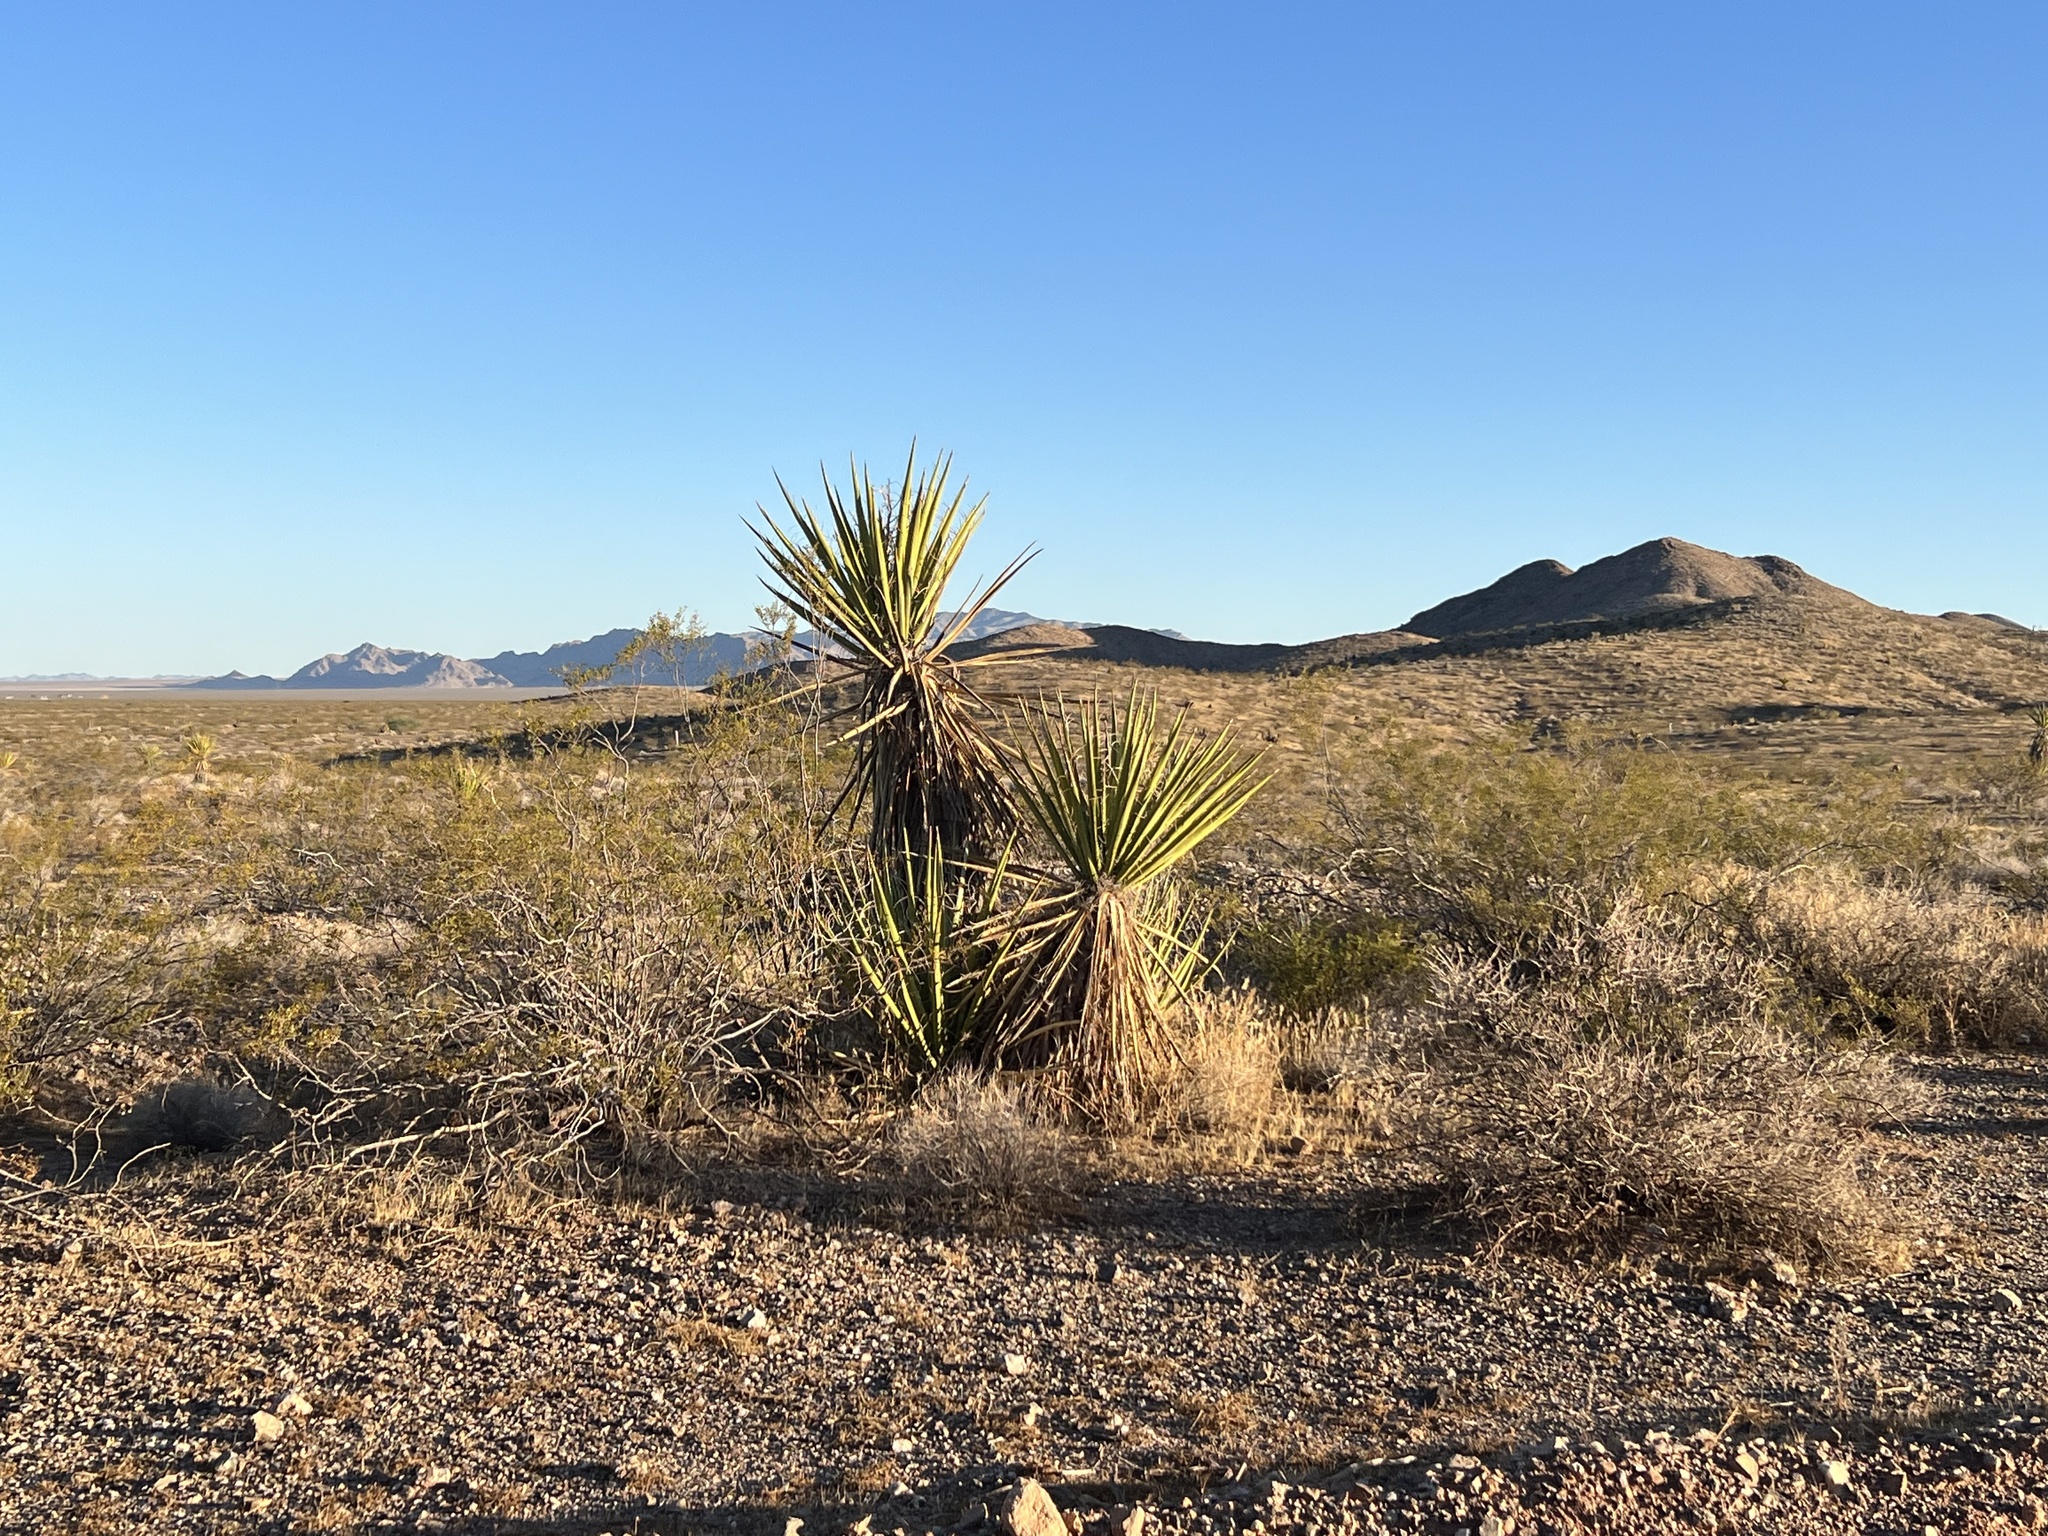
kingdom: Plantae
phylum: Tracheophyta
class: Liliopsida
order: Asparagales
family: Asparagaceae
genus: Yucca
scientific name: Yucca schidigera
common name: Mojave yucca
